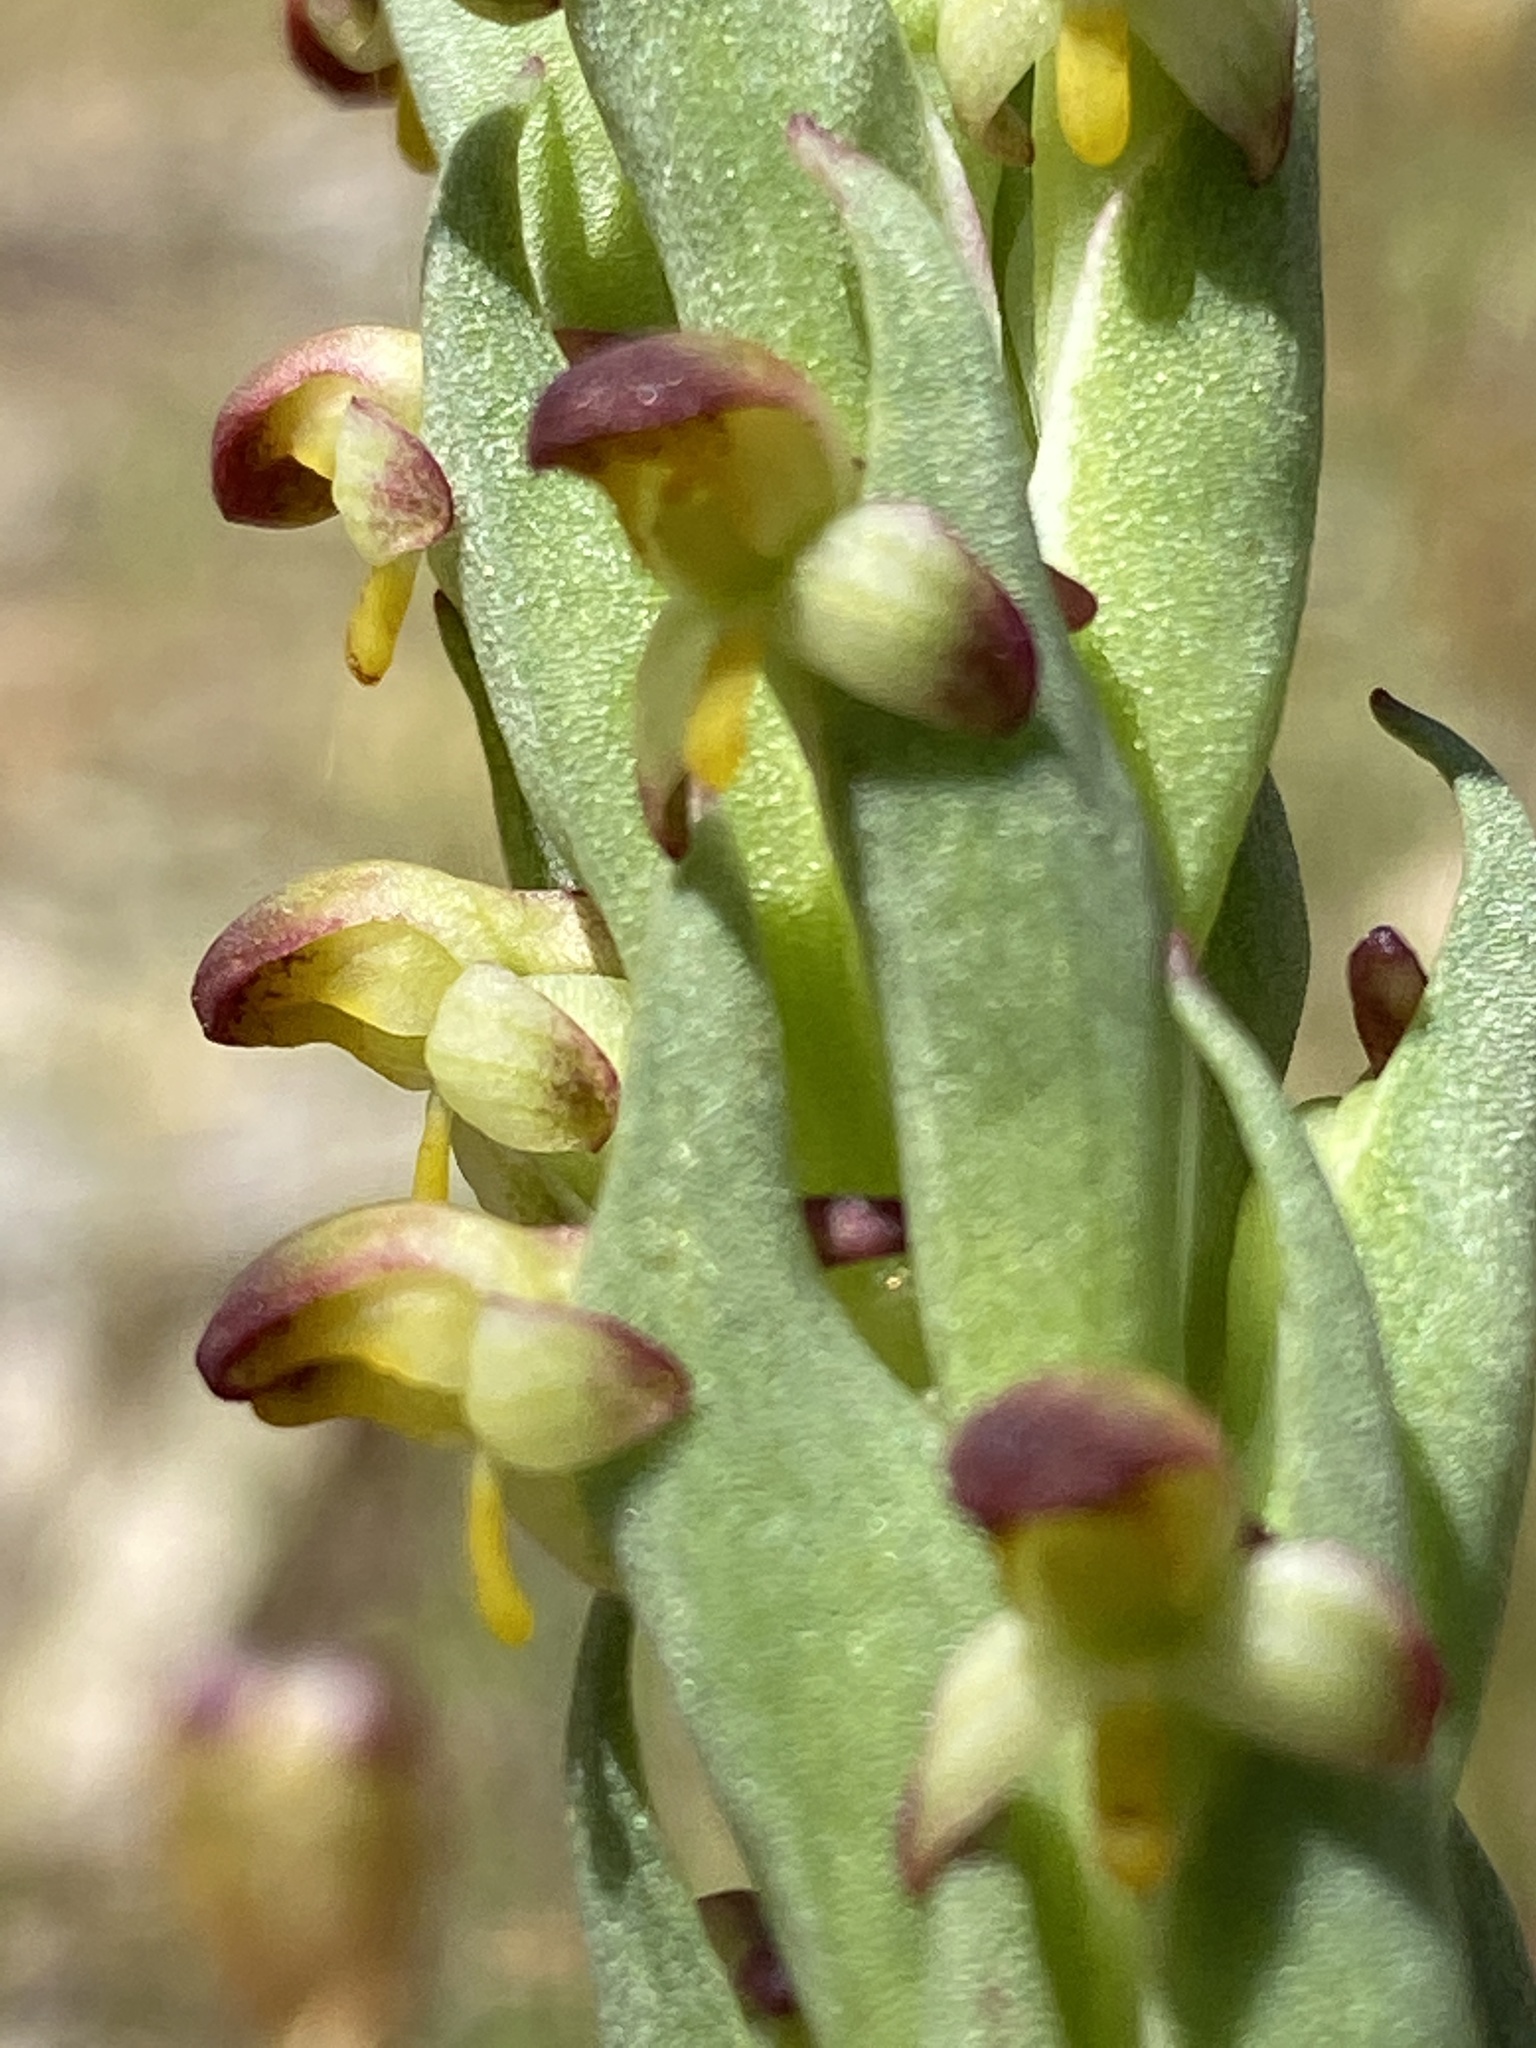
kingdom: Plantae
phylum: Tracheophyta
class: Liliopsida
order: Asparagales
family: Orchidaceae
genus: Disa
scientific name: Disa bracteata
